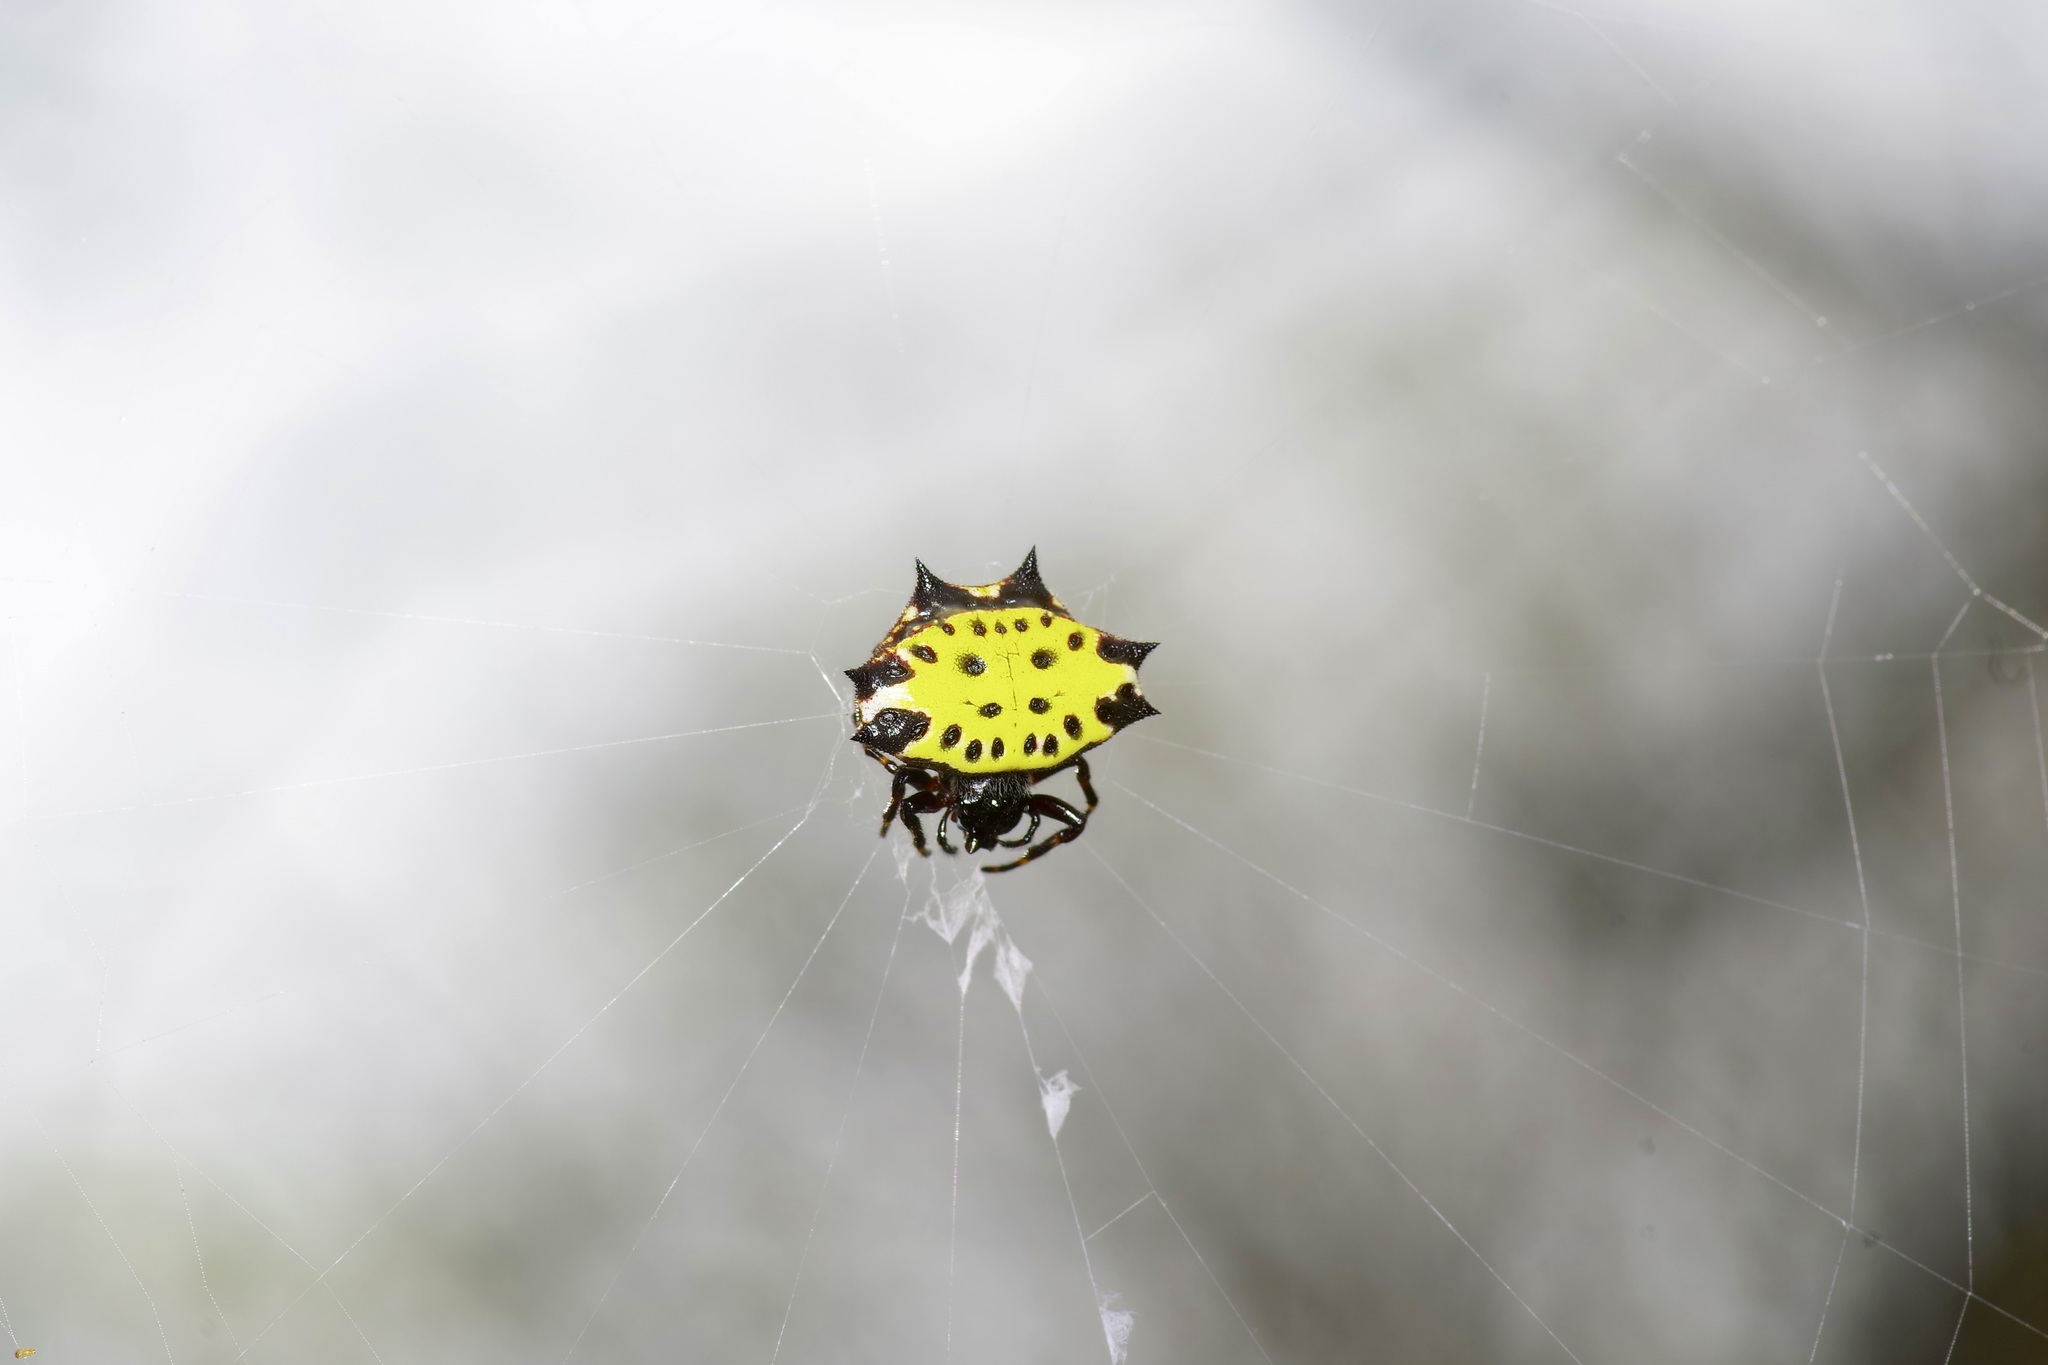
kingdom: Animalia
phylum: Arthropoda
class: Arachnida
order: Araneae
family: Araneidae
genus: Gasteracantha
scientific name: Gasteracantha cancriformis
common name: Orb weavers
